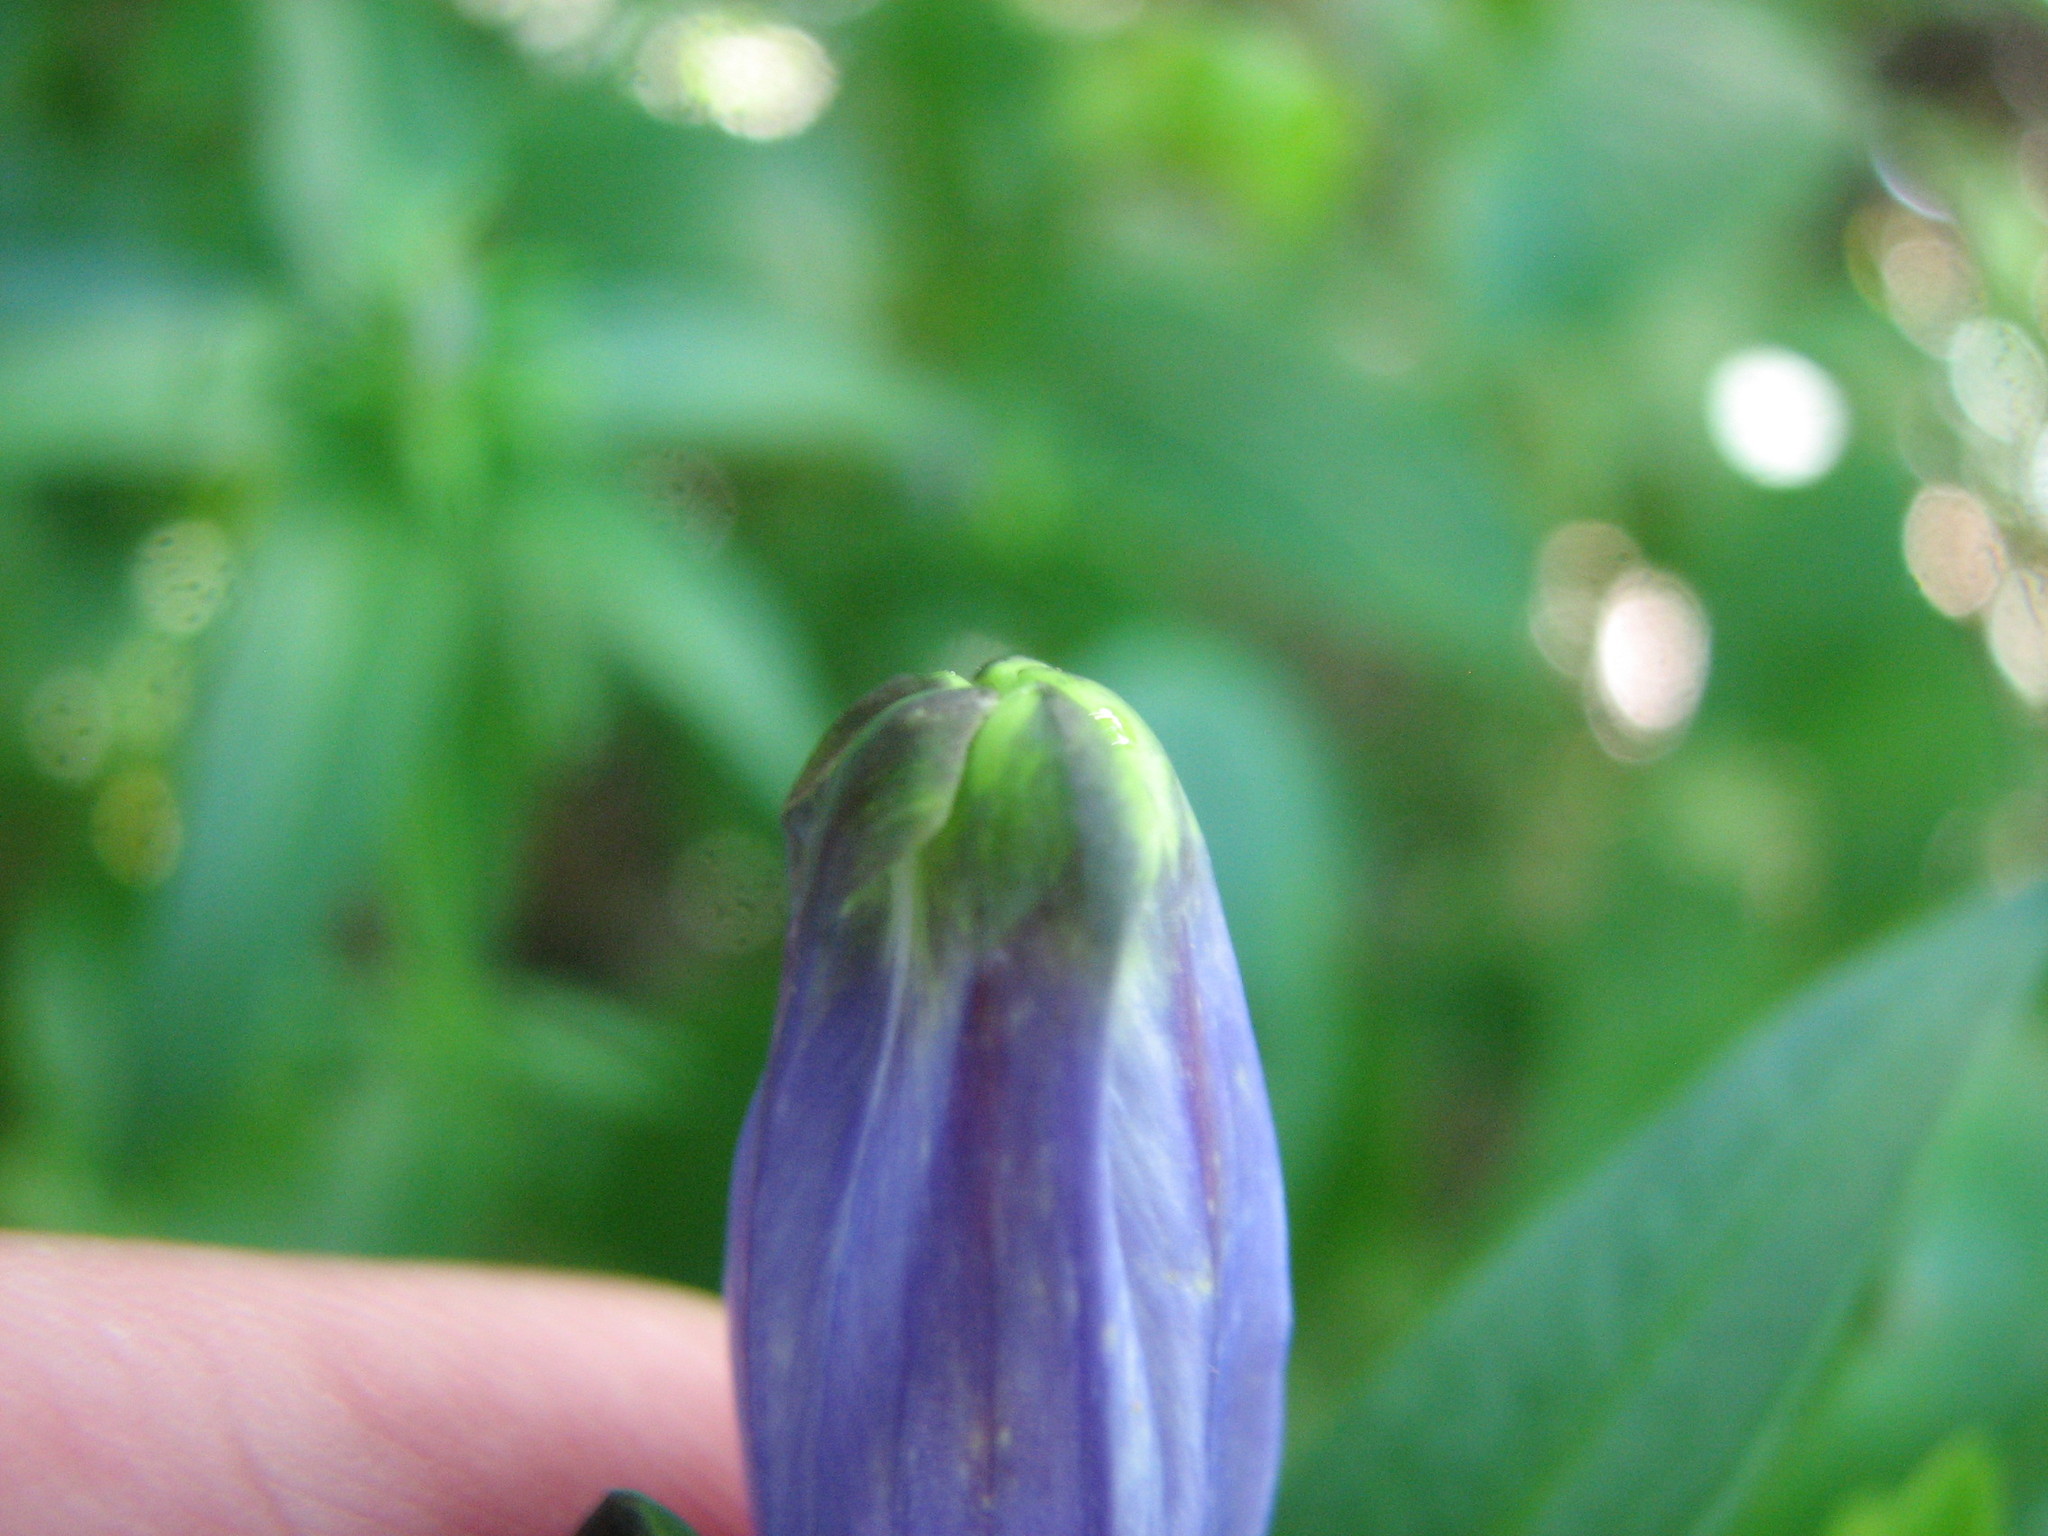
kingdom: Plantae
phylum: Tracheophyta
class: Magnoliopsida
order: Gentianales
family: Gentianaceae
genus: Gentiana
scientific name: Gentiana linearis
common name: Bastard gentian
